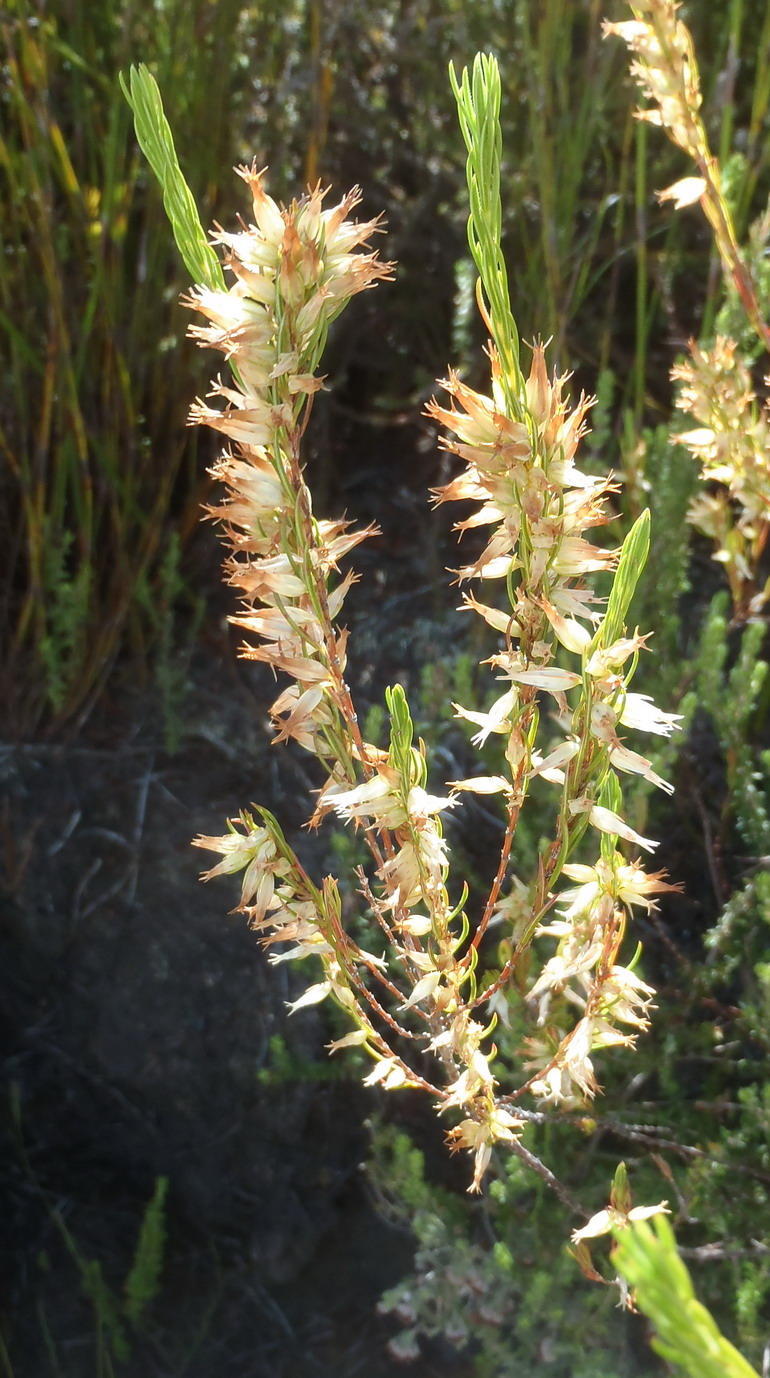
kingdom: Plantae
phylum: Tracheophyta
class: Magnoliopsida
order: Ericales
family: Ericaceae
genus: Erica
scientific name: Erica heliophila
